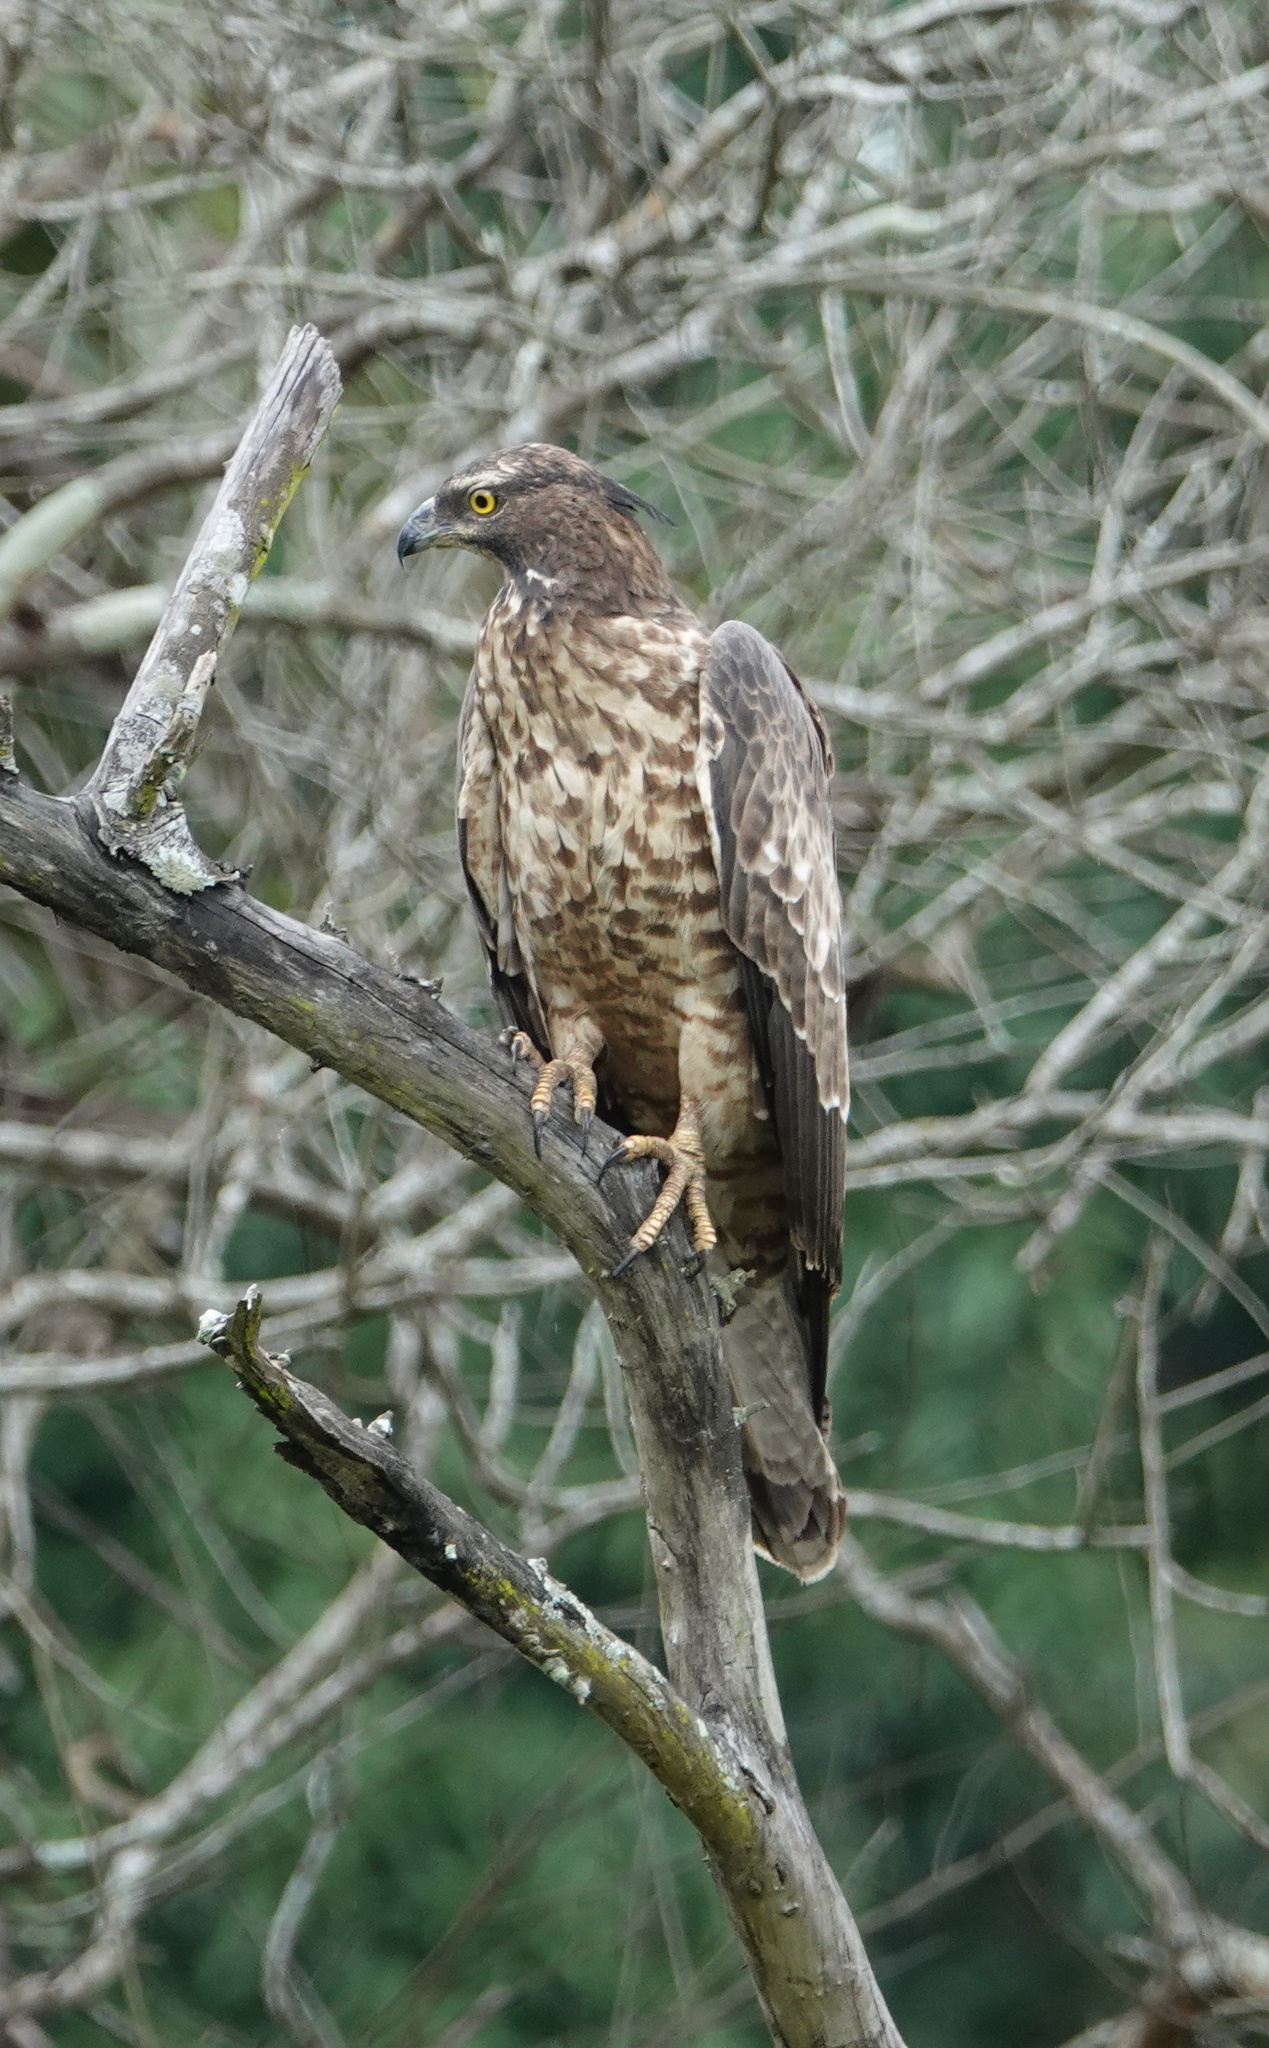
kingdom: Animalia
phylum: Chordata
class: Aves
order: Accipitriformes
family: Accipitridae
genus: Nisaetus
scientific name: Nisaetus cirrhatus
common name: Changeable hawk-eagle
